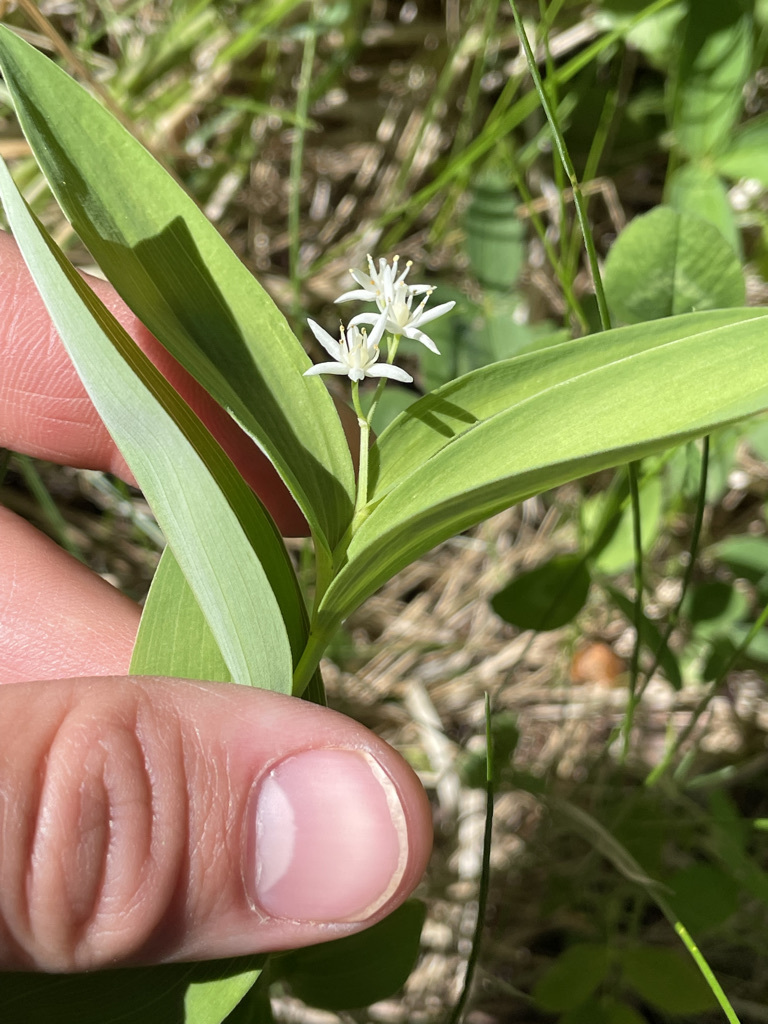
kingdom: Plantae
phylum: Tracheophyta
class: Liliopsida
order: Asparagales
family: Asparagaceae
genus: Maianthemum
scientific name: Maianthemum stellatum
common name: Little false solomon's seal
